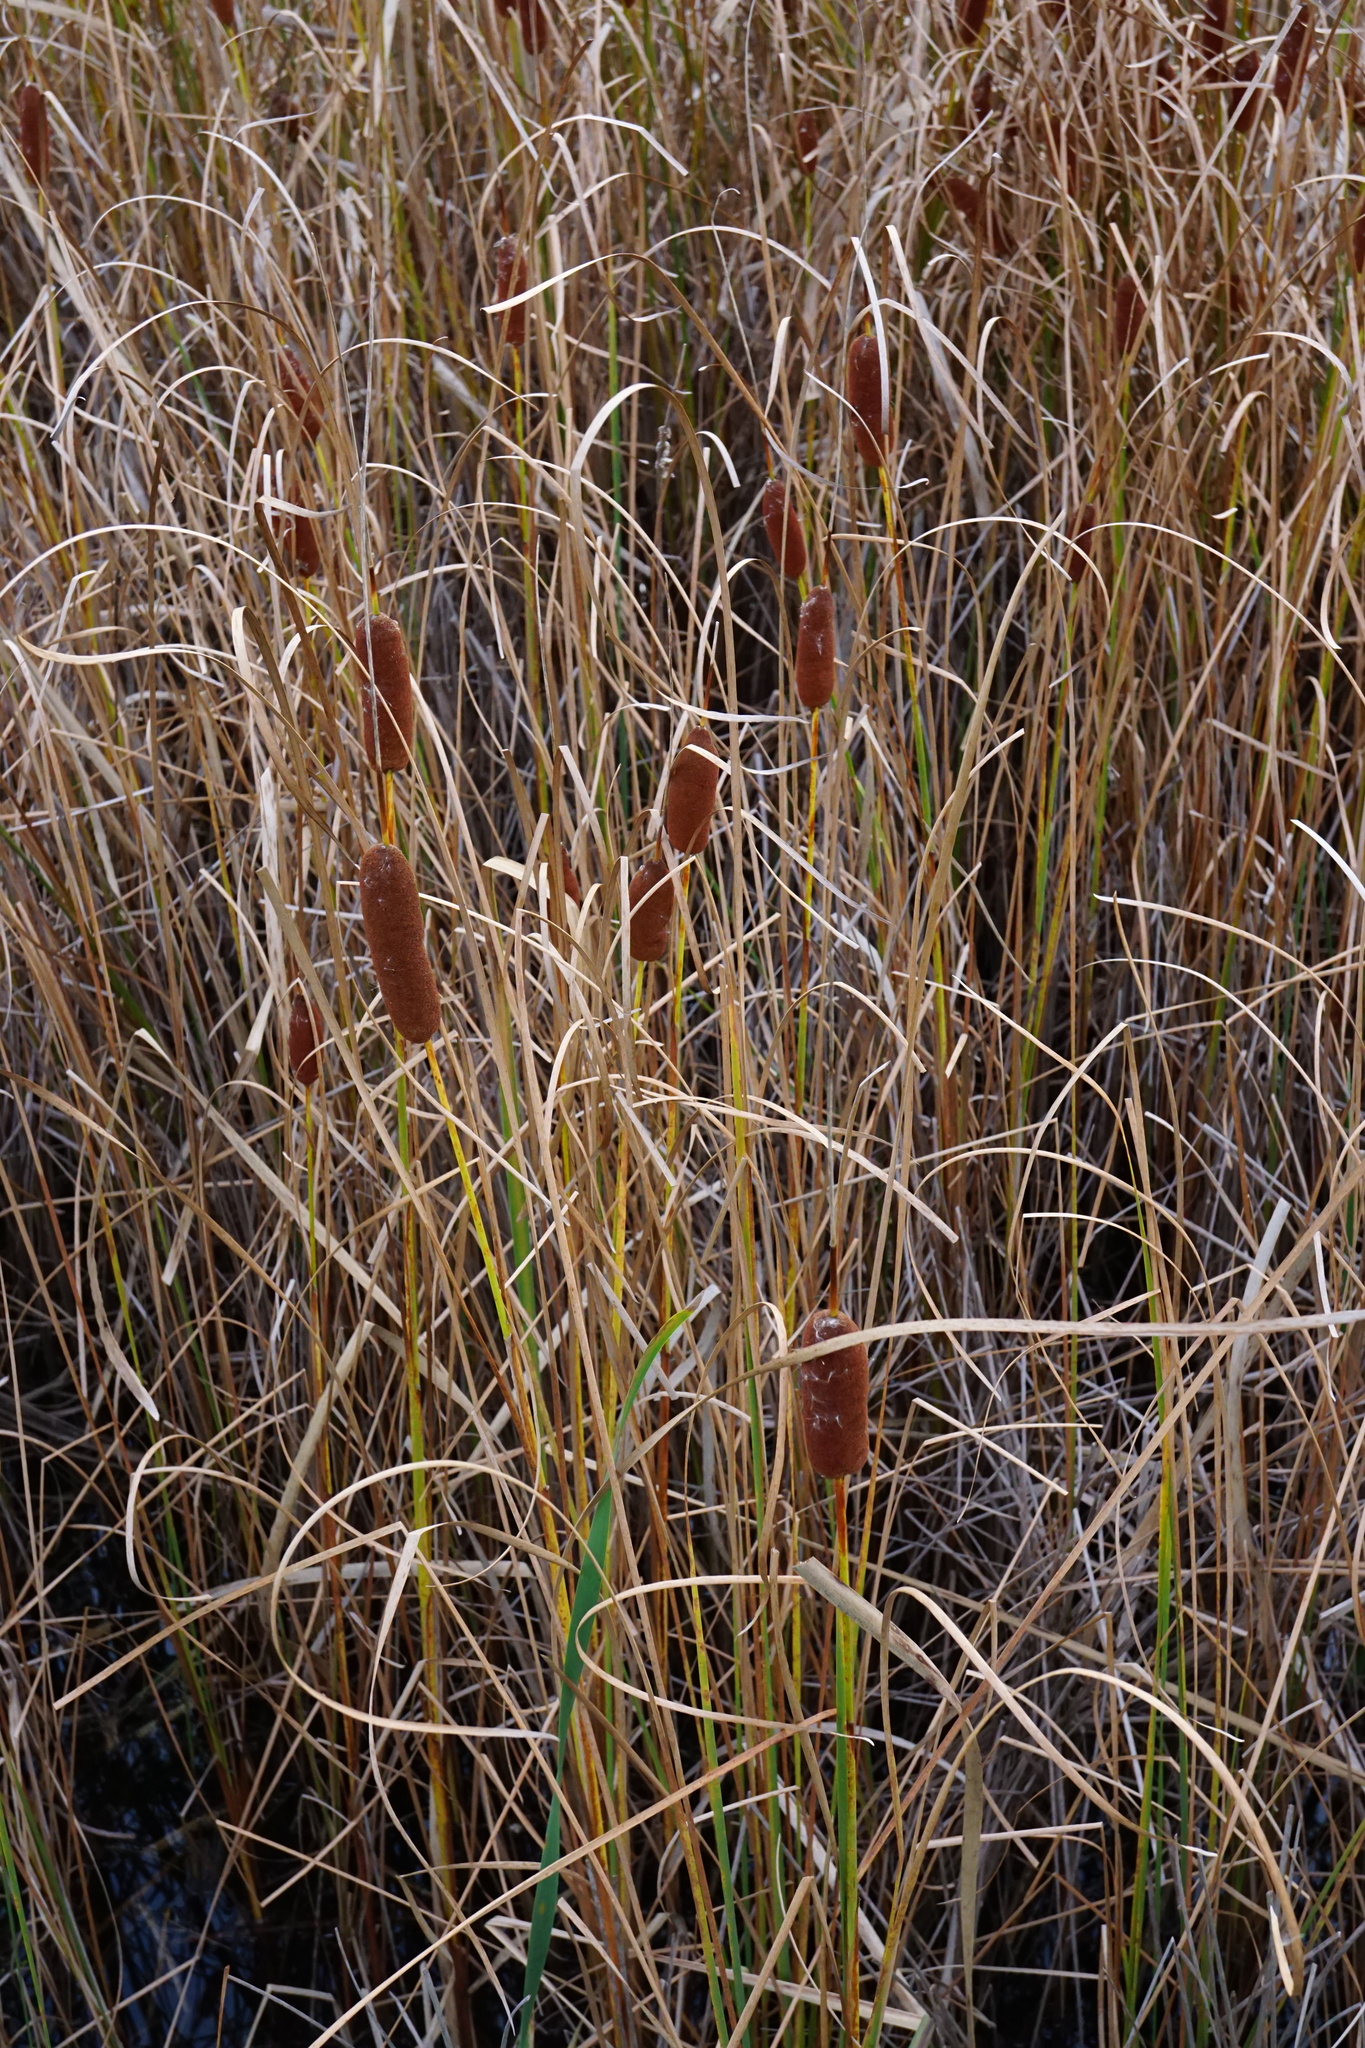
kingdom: Plantae
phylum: Tracheophyta
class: Liliopsida
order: Poales
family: Typhaceae
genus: Typha
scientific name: Typha laxmannii
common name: Laxman’s bulrush
